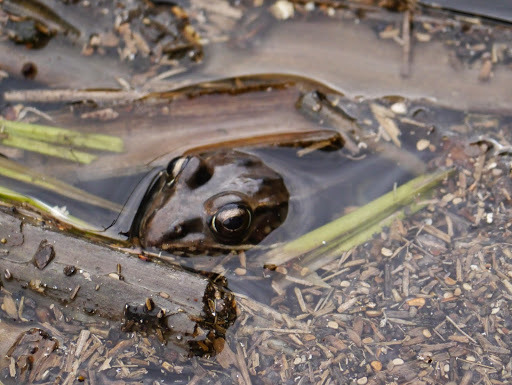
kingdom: Animalia
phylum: Chordata
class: Amphibia
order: Anura
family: Ranidae
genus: Lithobates
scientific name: Lithobates sphenocephalus
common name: Southern leopard frog
